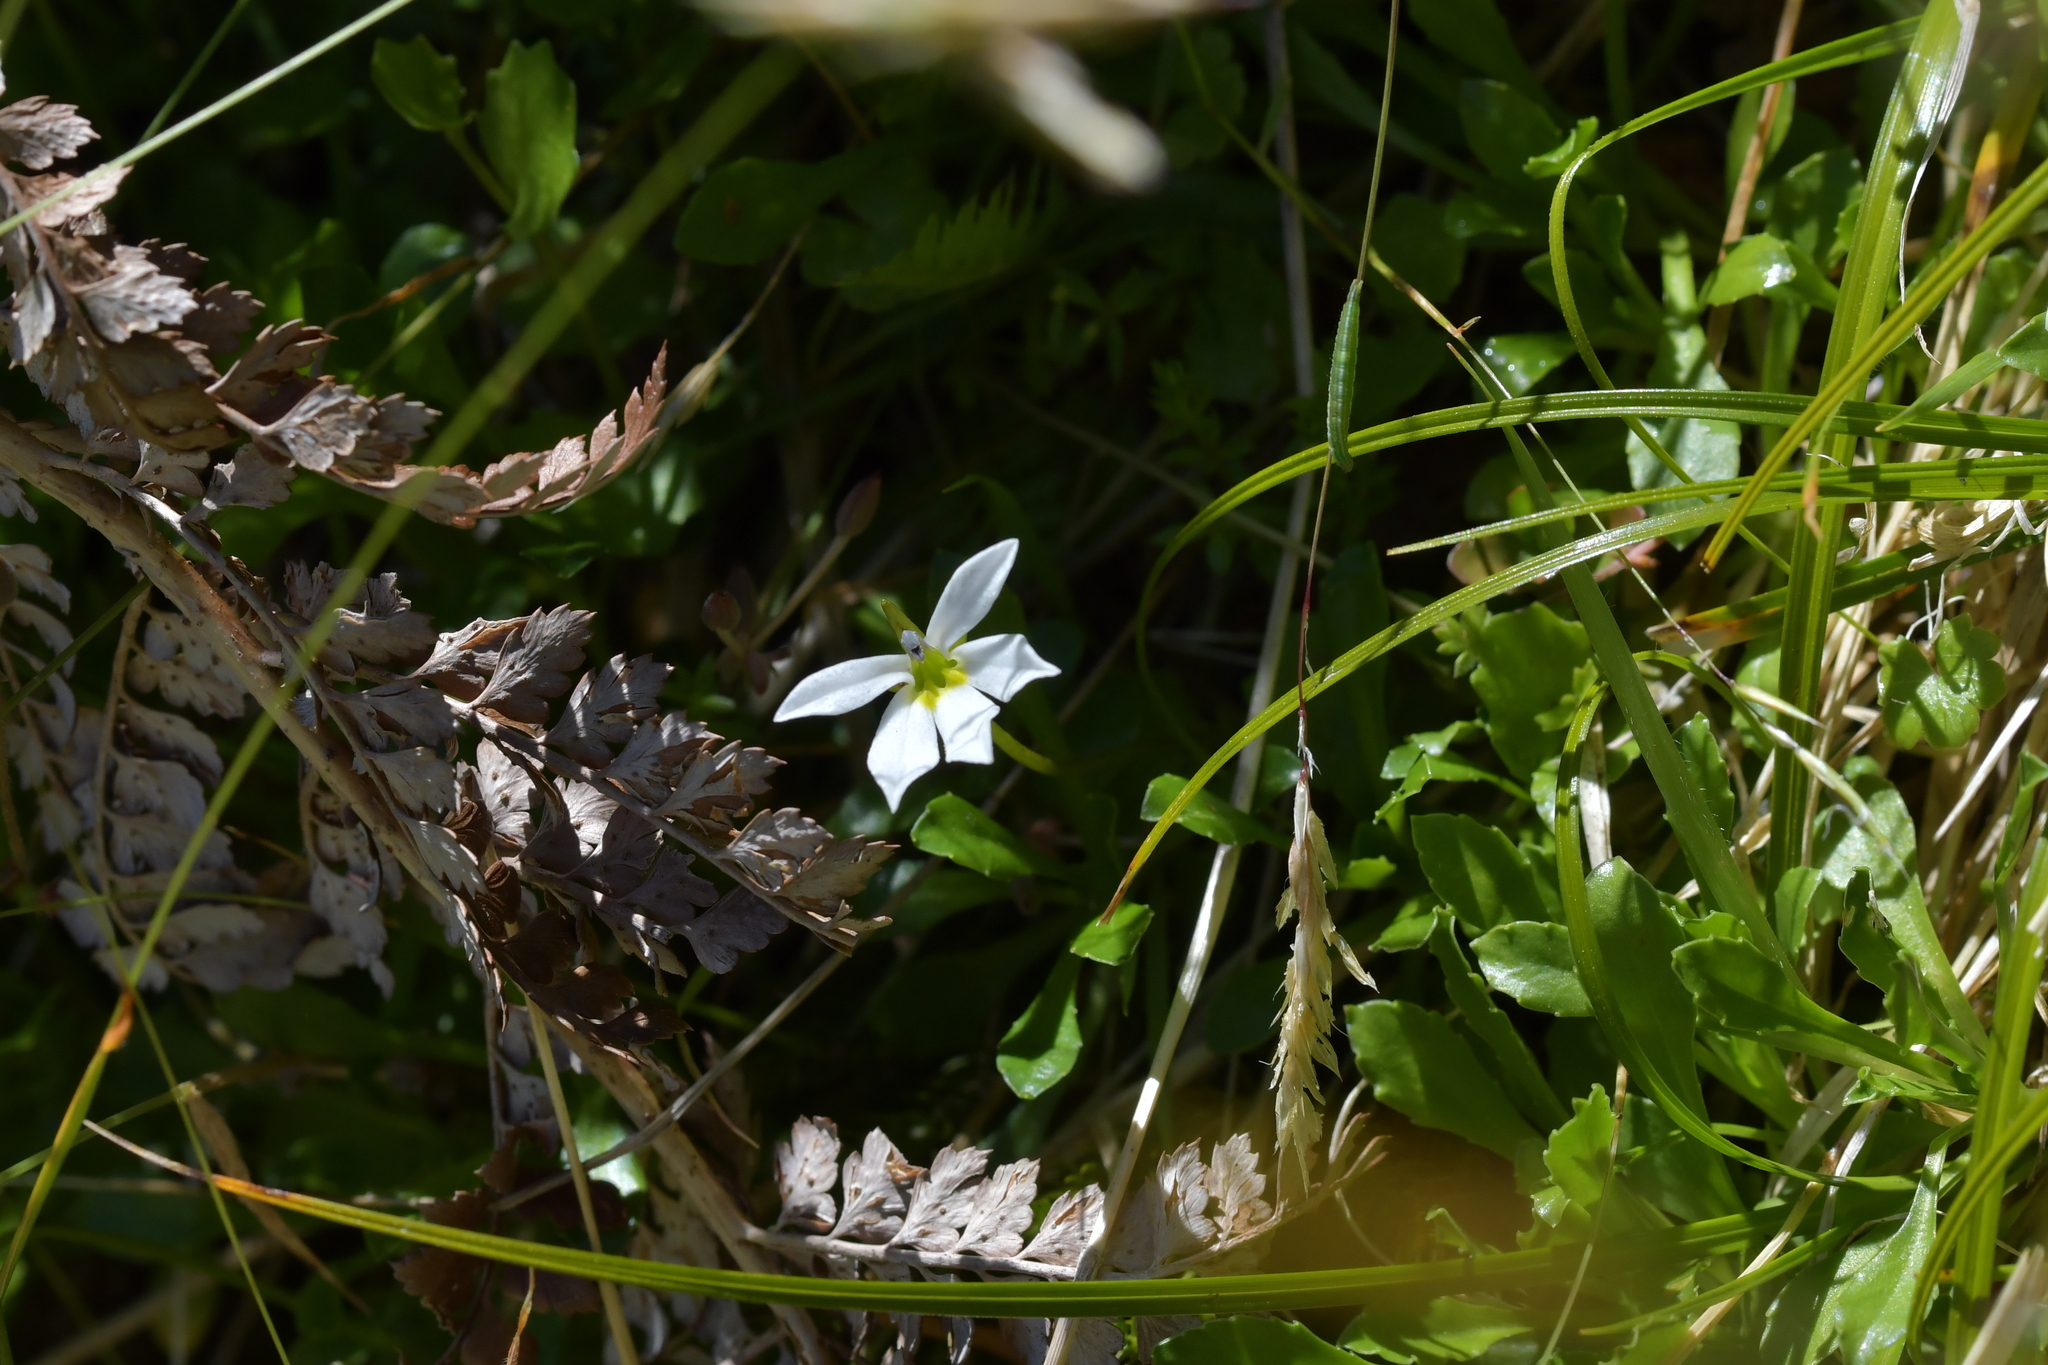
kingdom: Plantae
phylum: Tracheophyta
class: Magnoliopsida
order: Asterales
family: Campanulaceae
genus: Lobelia
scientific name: Lobelia angulata
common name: Lawn lobelia
